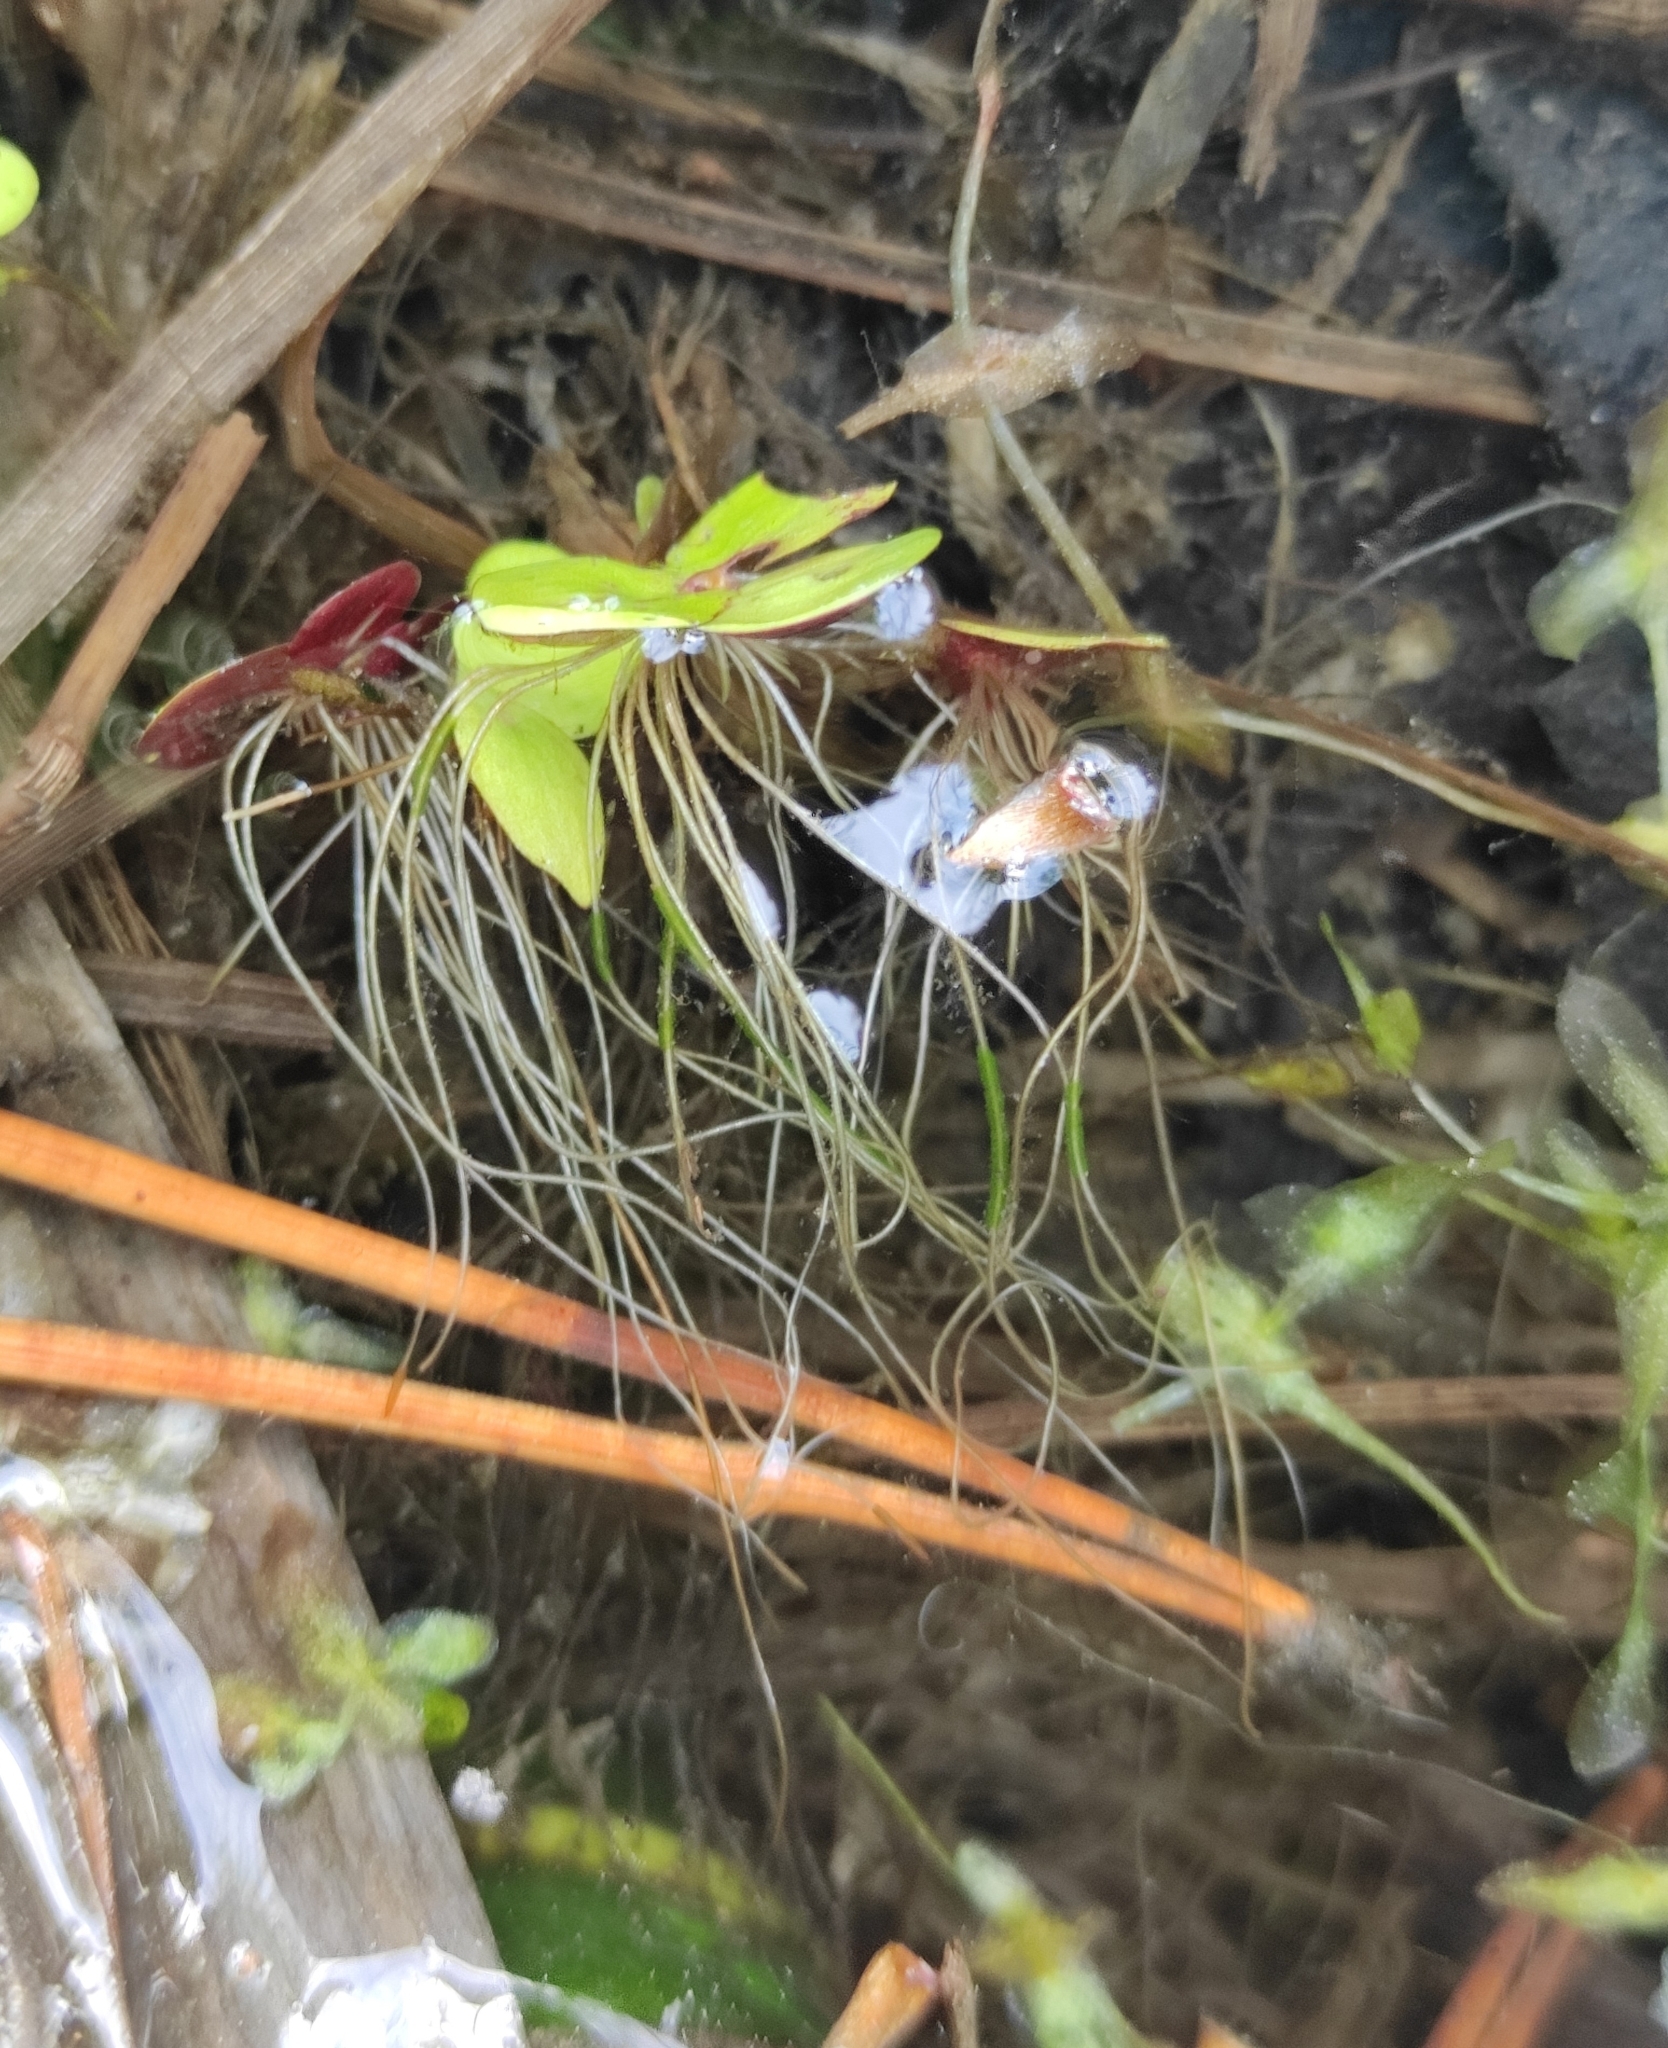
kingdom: Plantae
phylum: Tracheophyta
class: Liliopsida
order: Alismatales
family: Araceae
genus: Spirodela
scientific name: Spirodela polyrhiza
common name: Great duckweed
